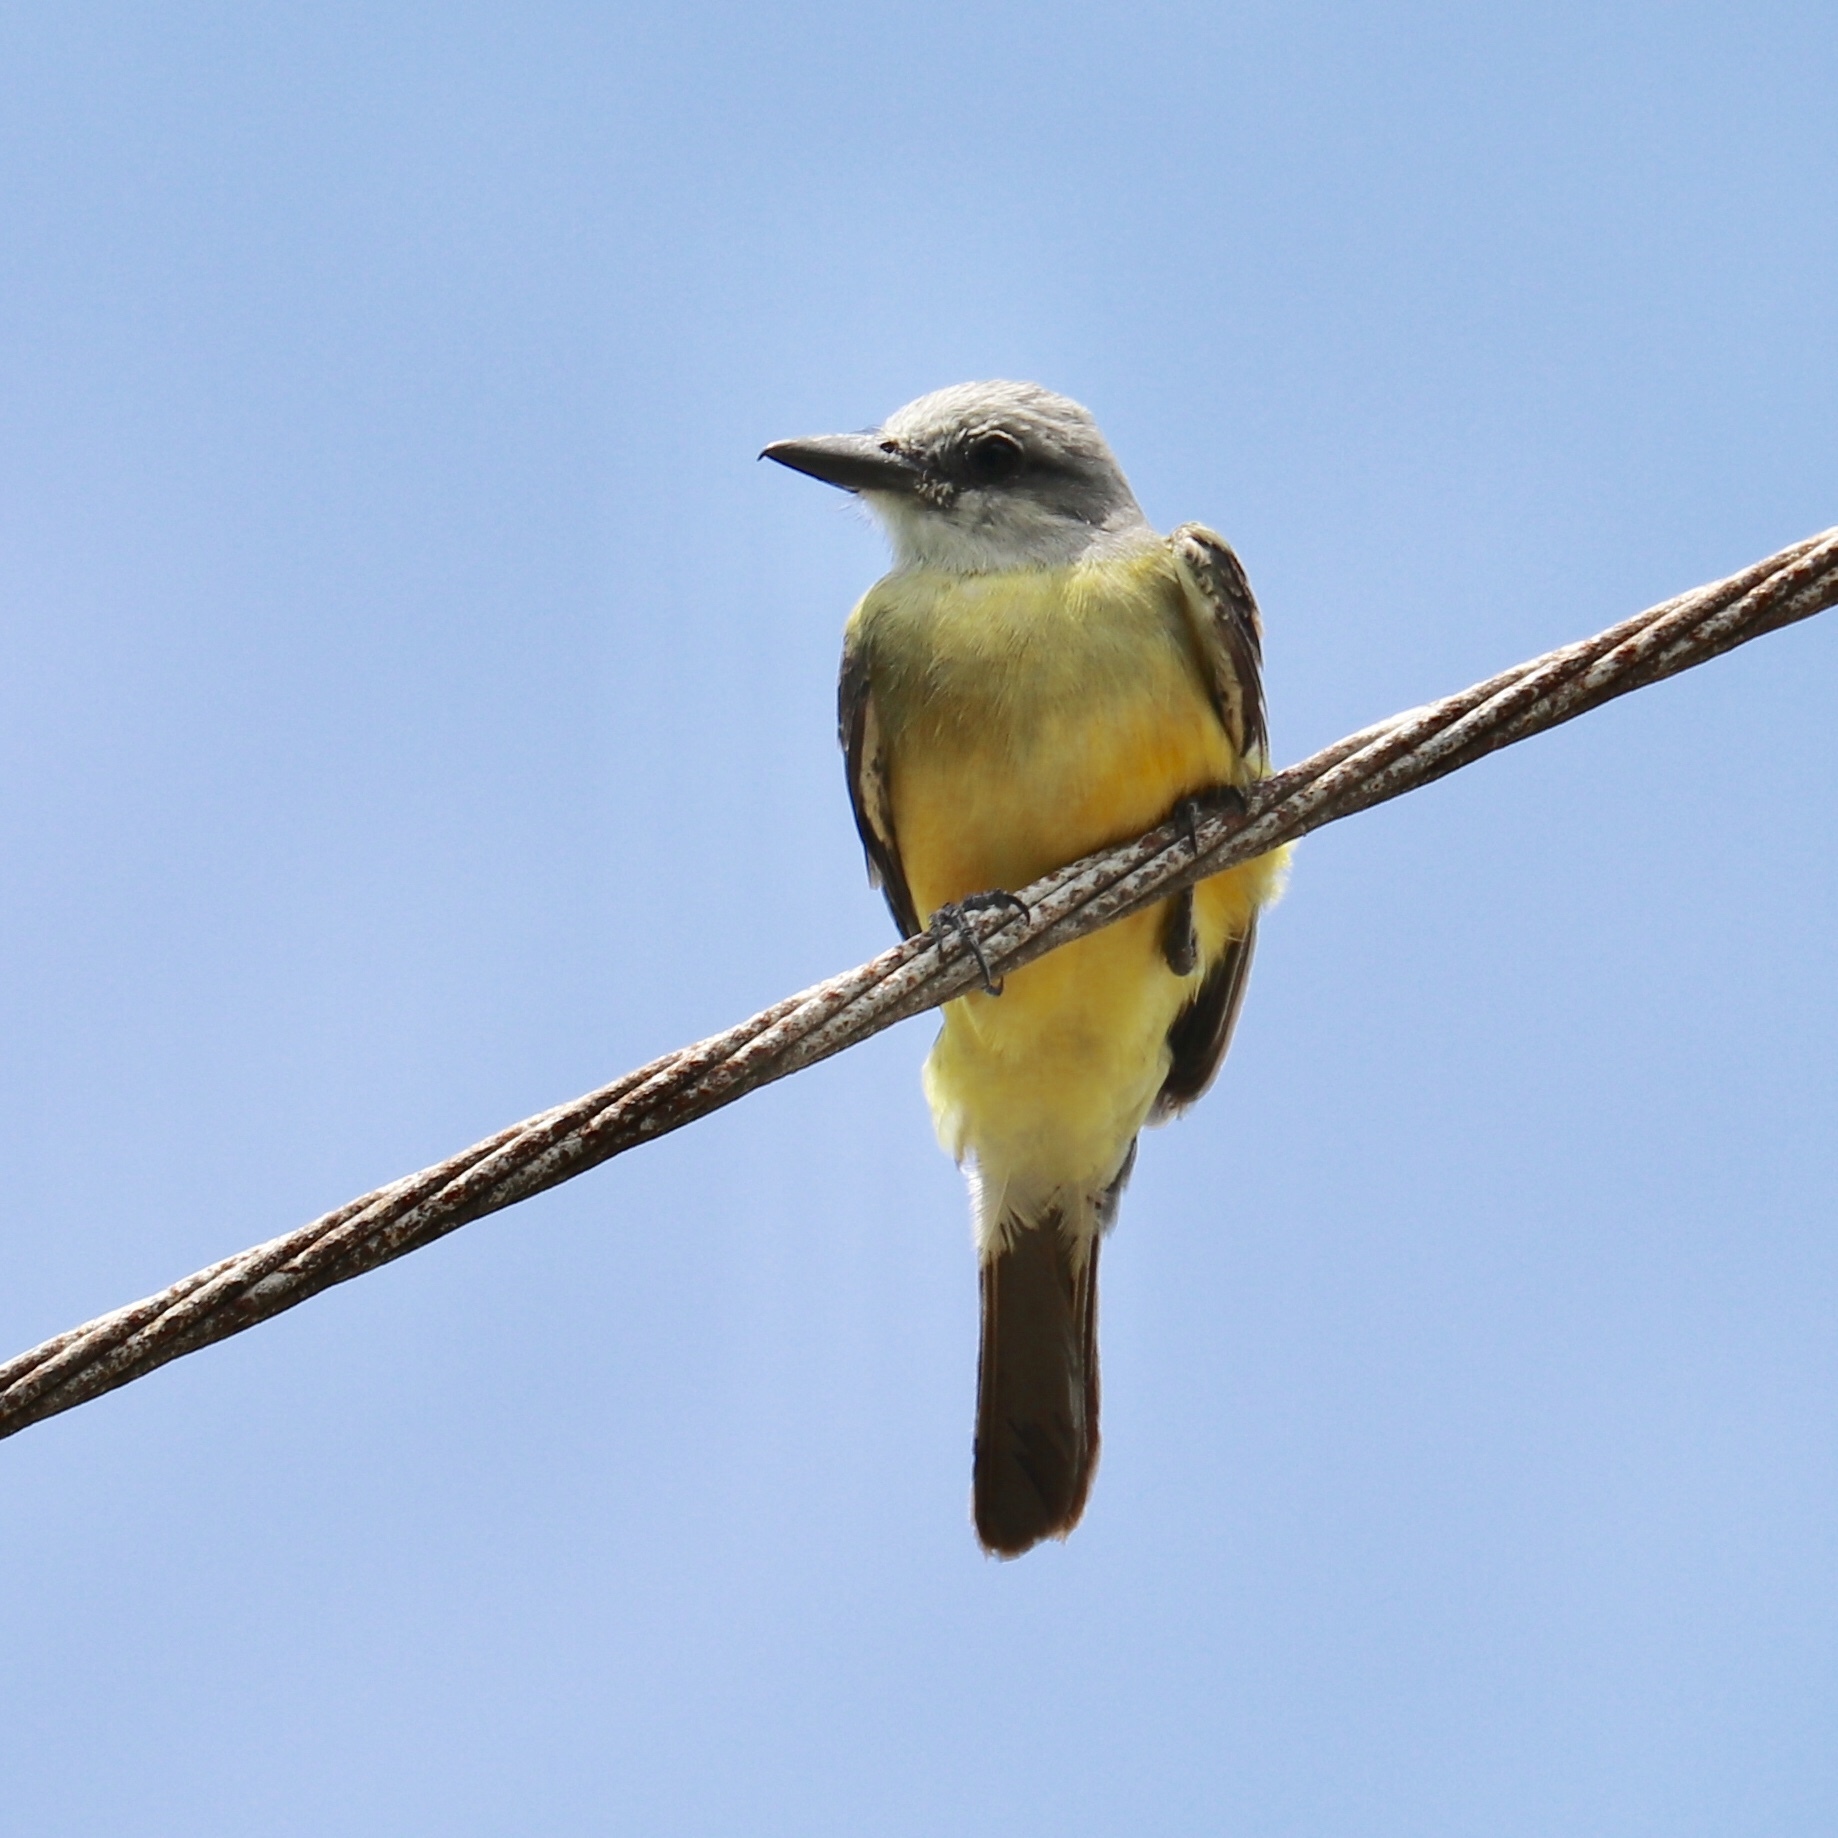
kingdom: Animalia
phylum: Chordata
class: Aves
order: Passeriformes
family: Tyrannidae
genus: Tyrannus
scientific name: Tyrannus melancholicus
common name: Tropical kingbird
